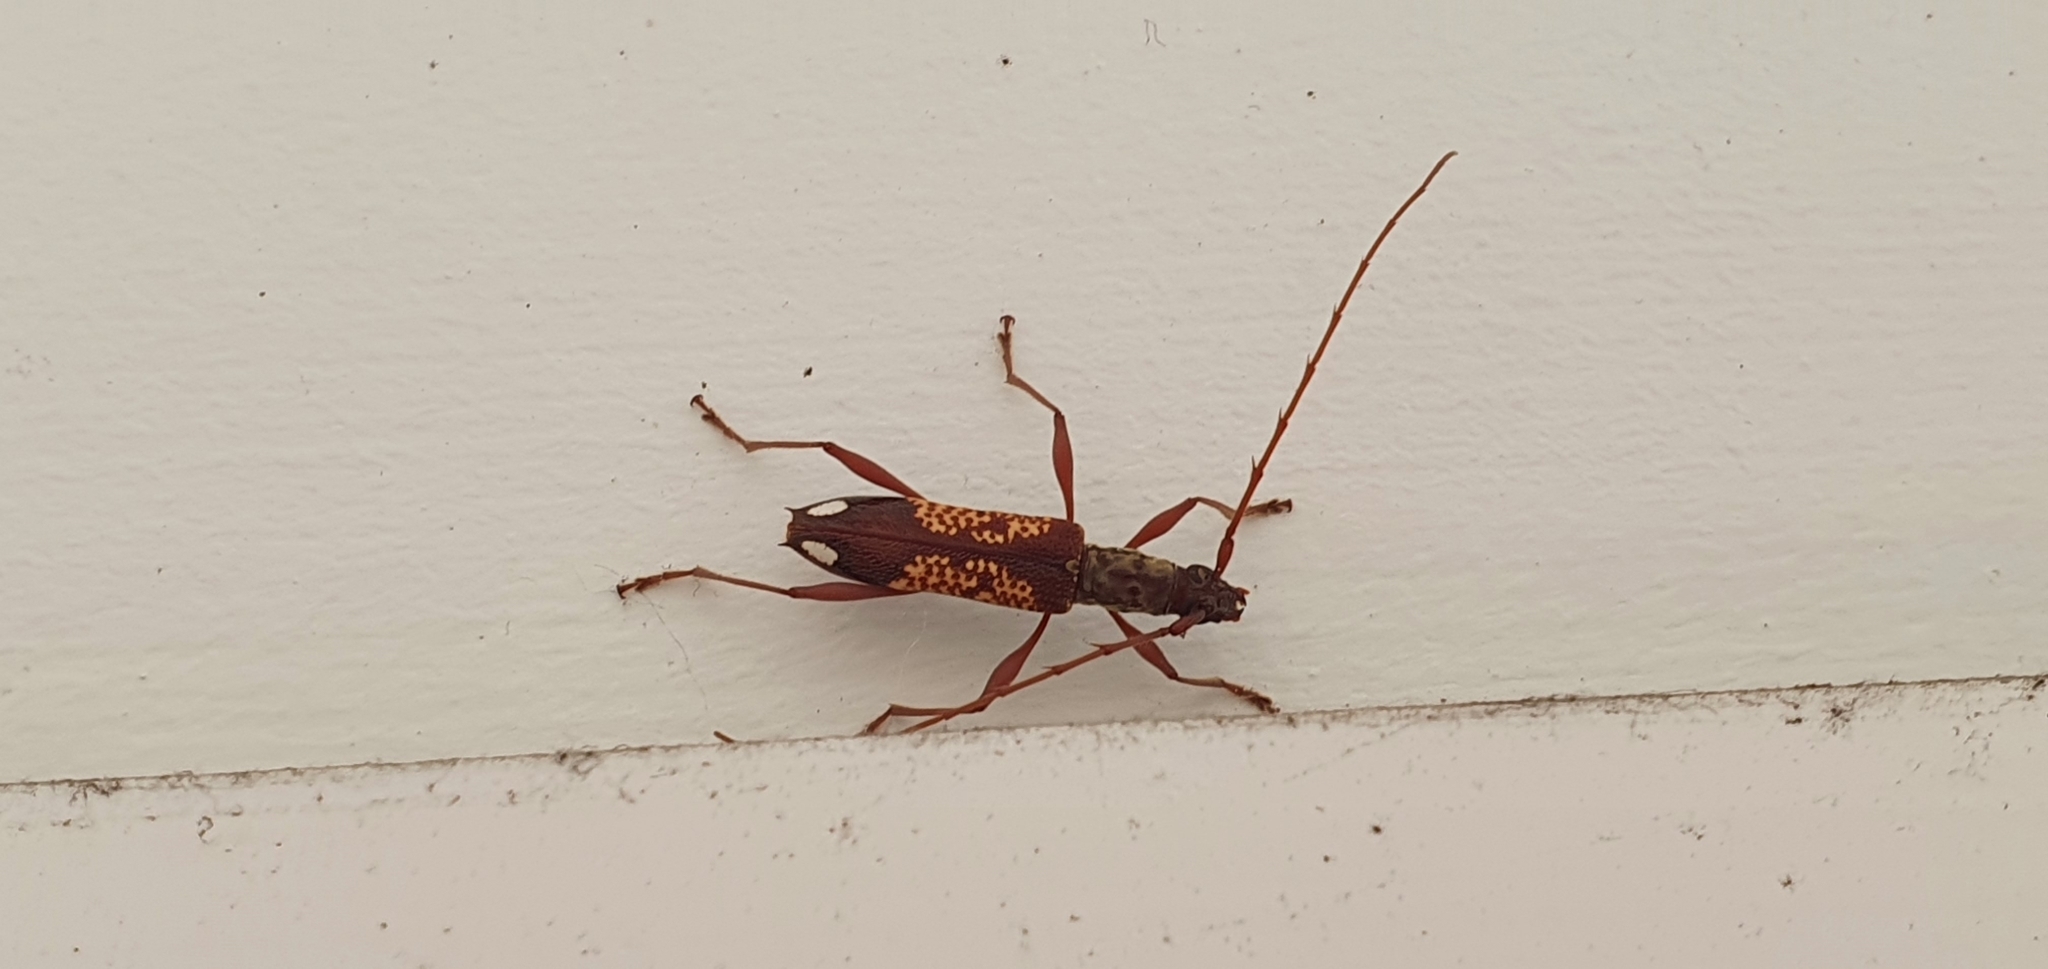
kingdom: Animalia
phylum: Arthropoda
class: Insecta
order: Coleoptera
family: Cerambycidae
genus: Coptocercus
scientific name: Coptocercus multitrichus
